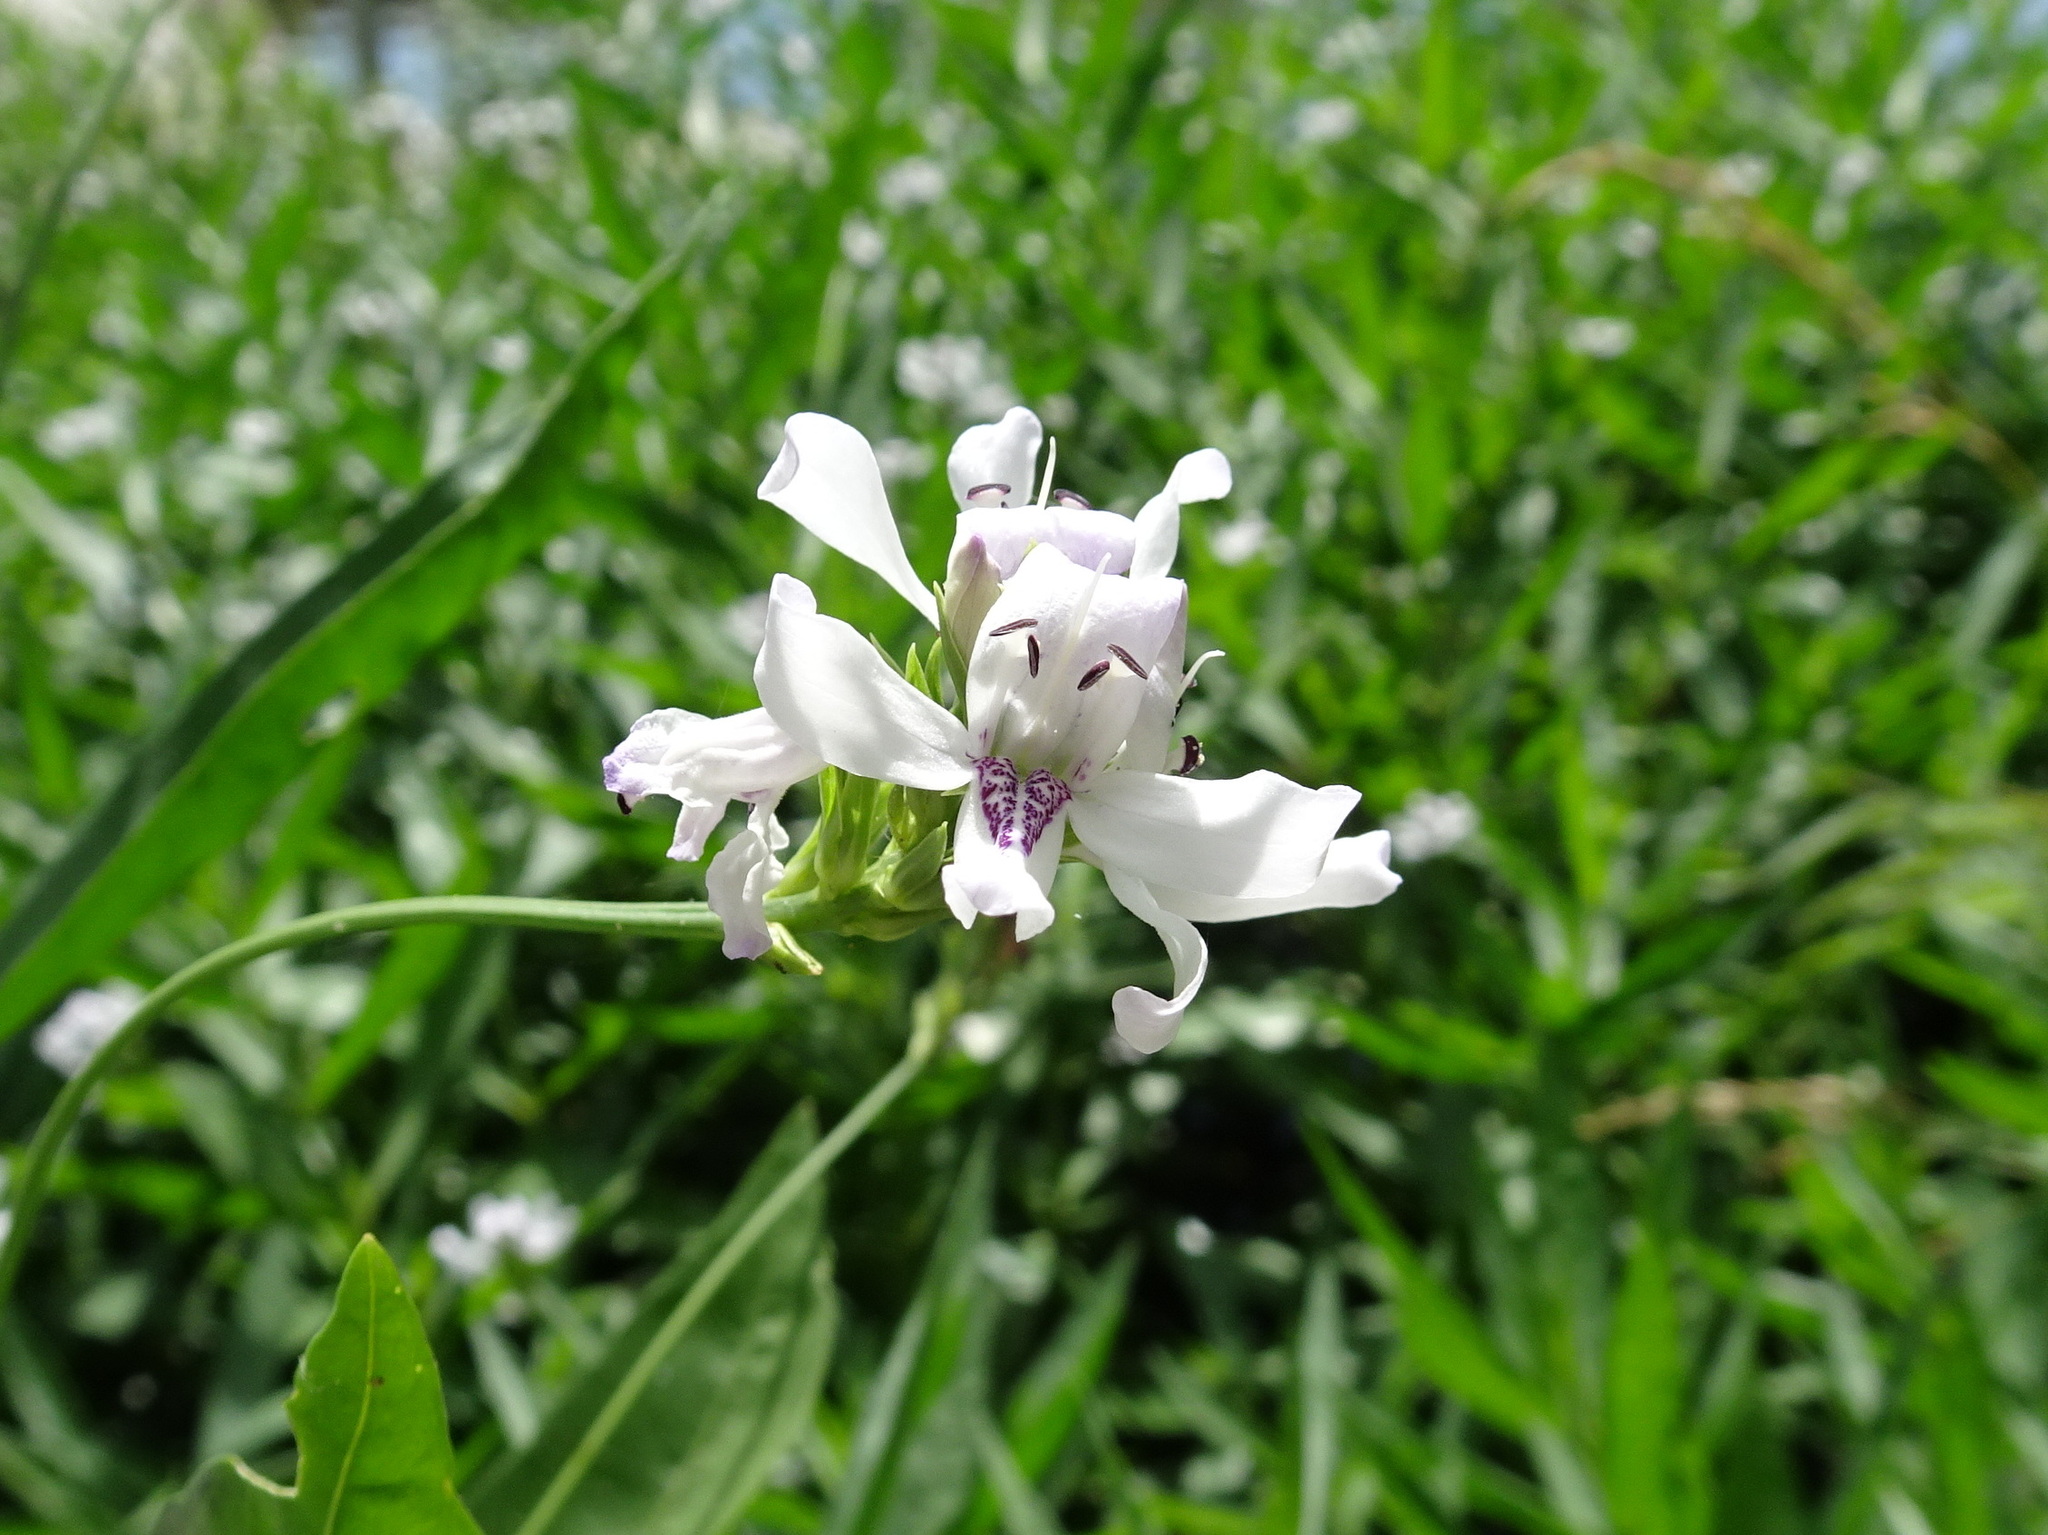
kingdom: Plantae
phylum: Tracheophyta
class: Magnoliopsida
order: Lamiales
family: Acanthaceae
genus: Dianthera
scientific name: Dianthera americana
